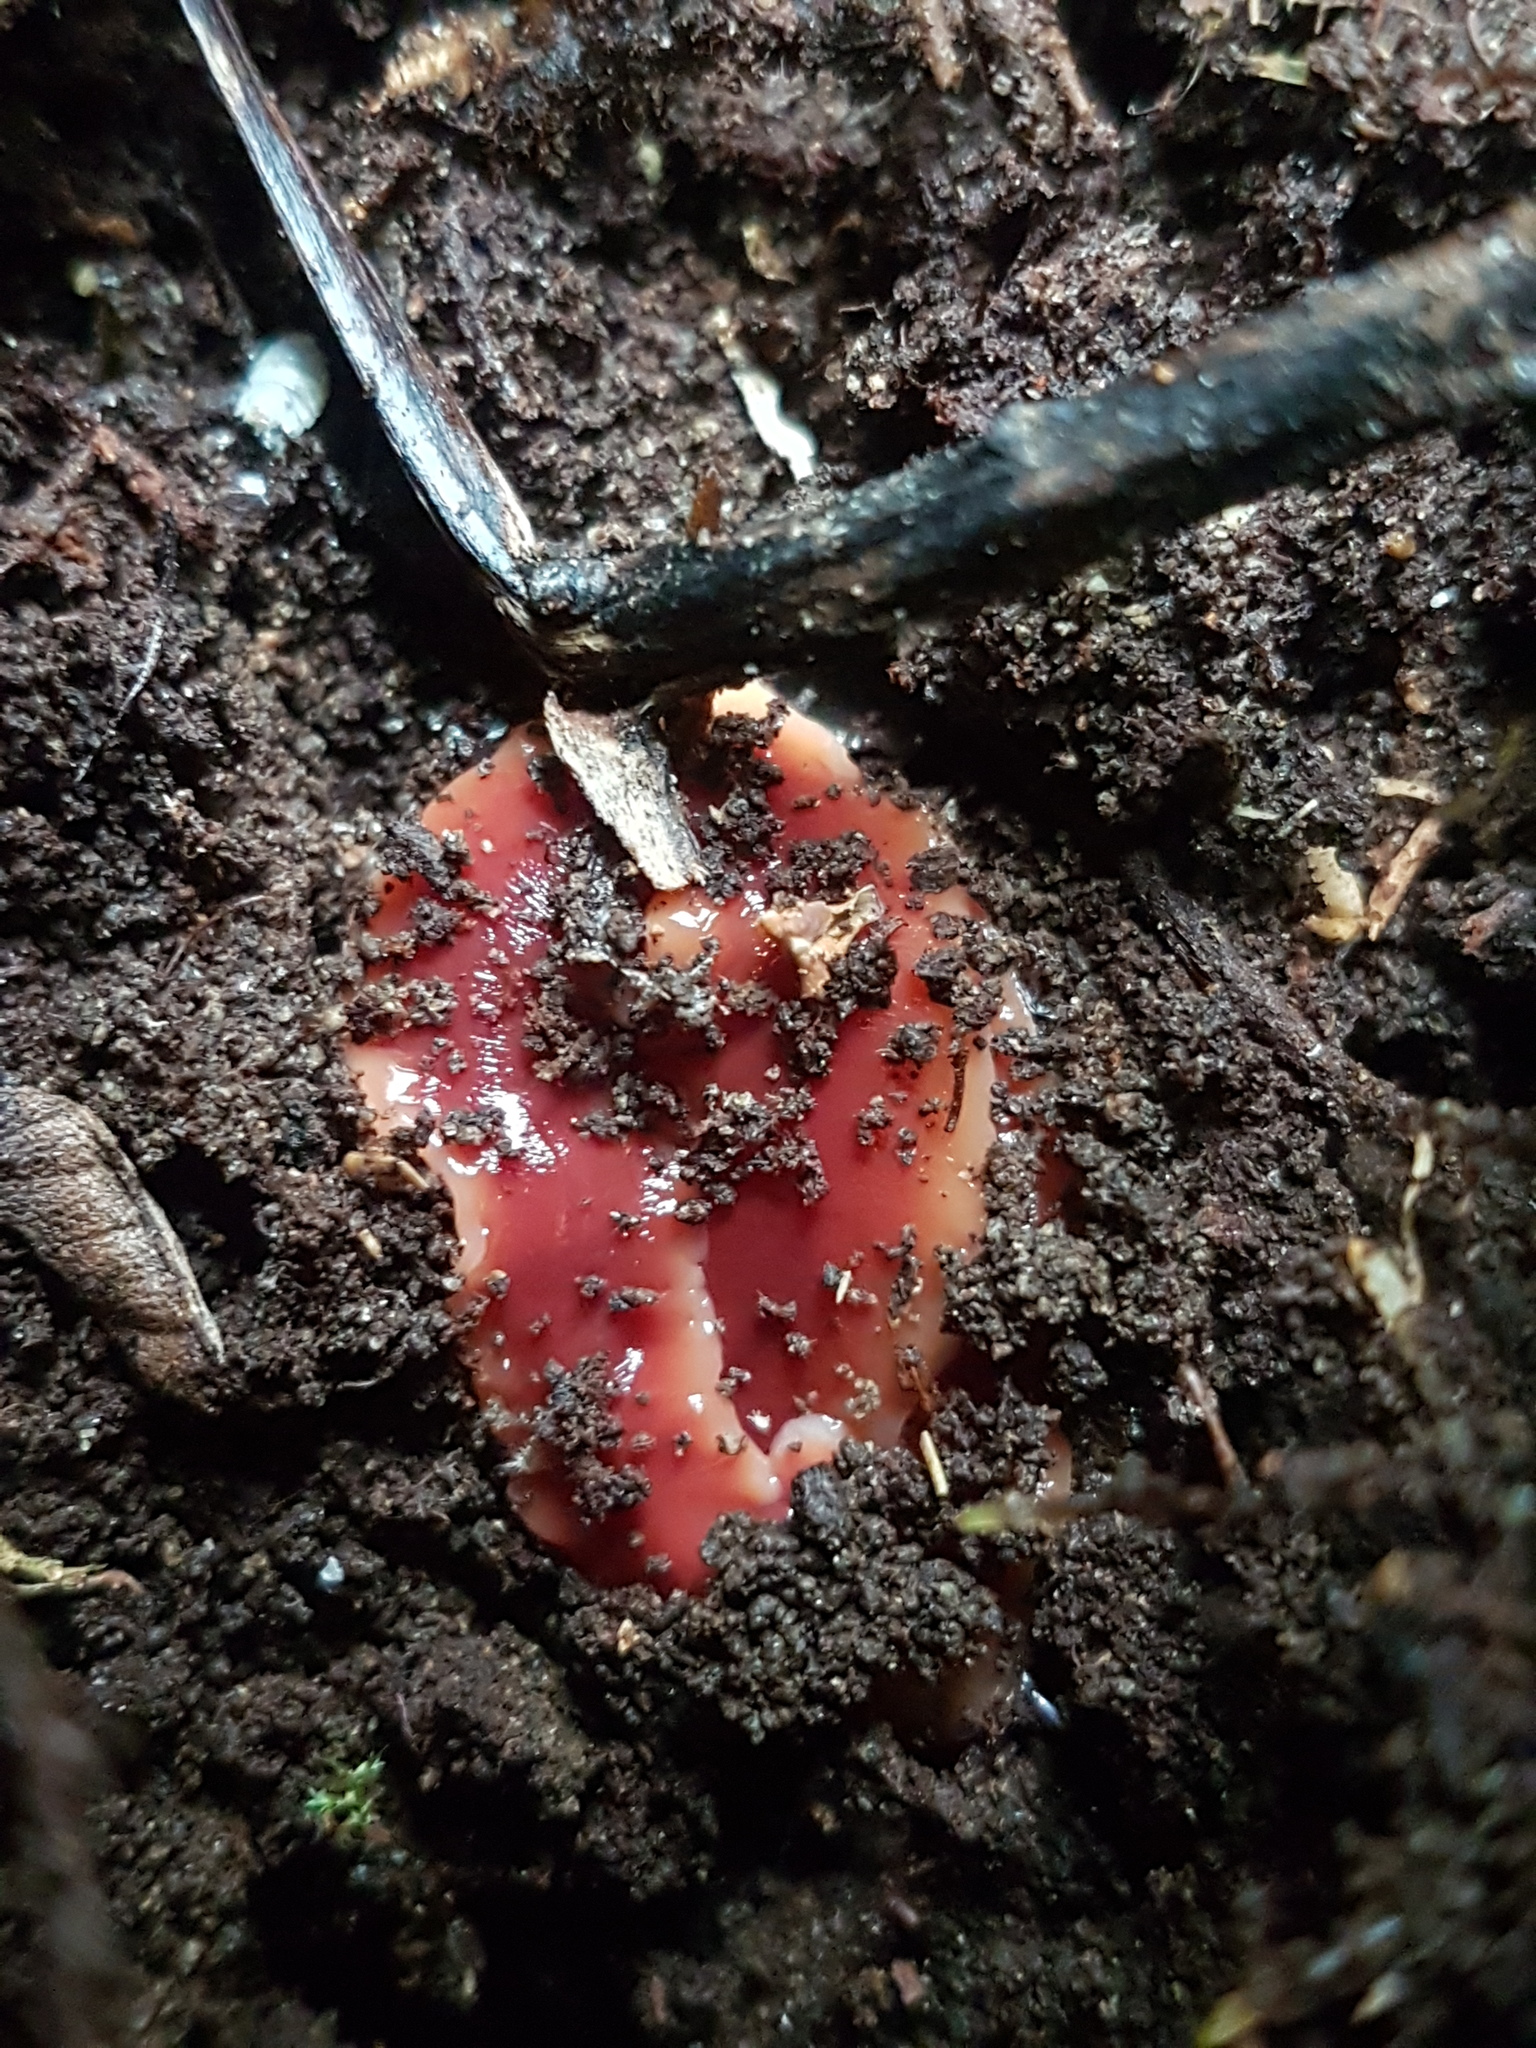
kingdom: Animalia
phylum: Platyhelminthes
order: Tricladida
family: Geoplanidae
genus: Arthurdendyus
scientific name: Arthurdendyus testaceus
